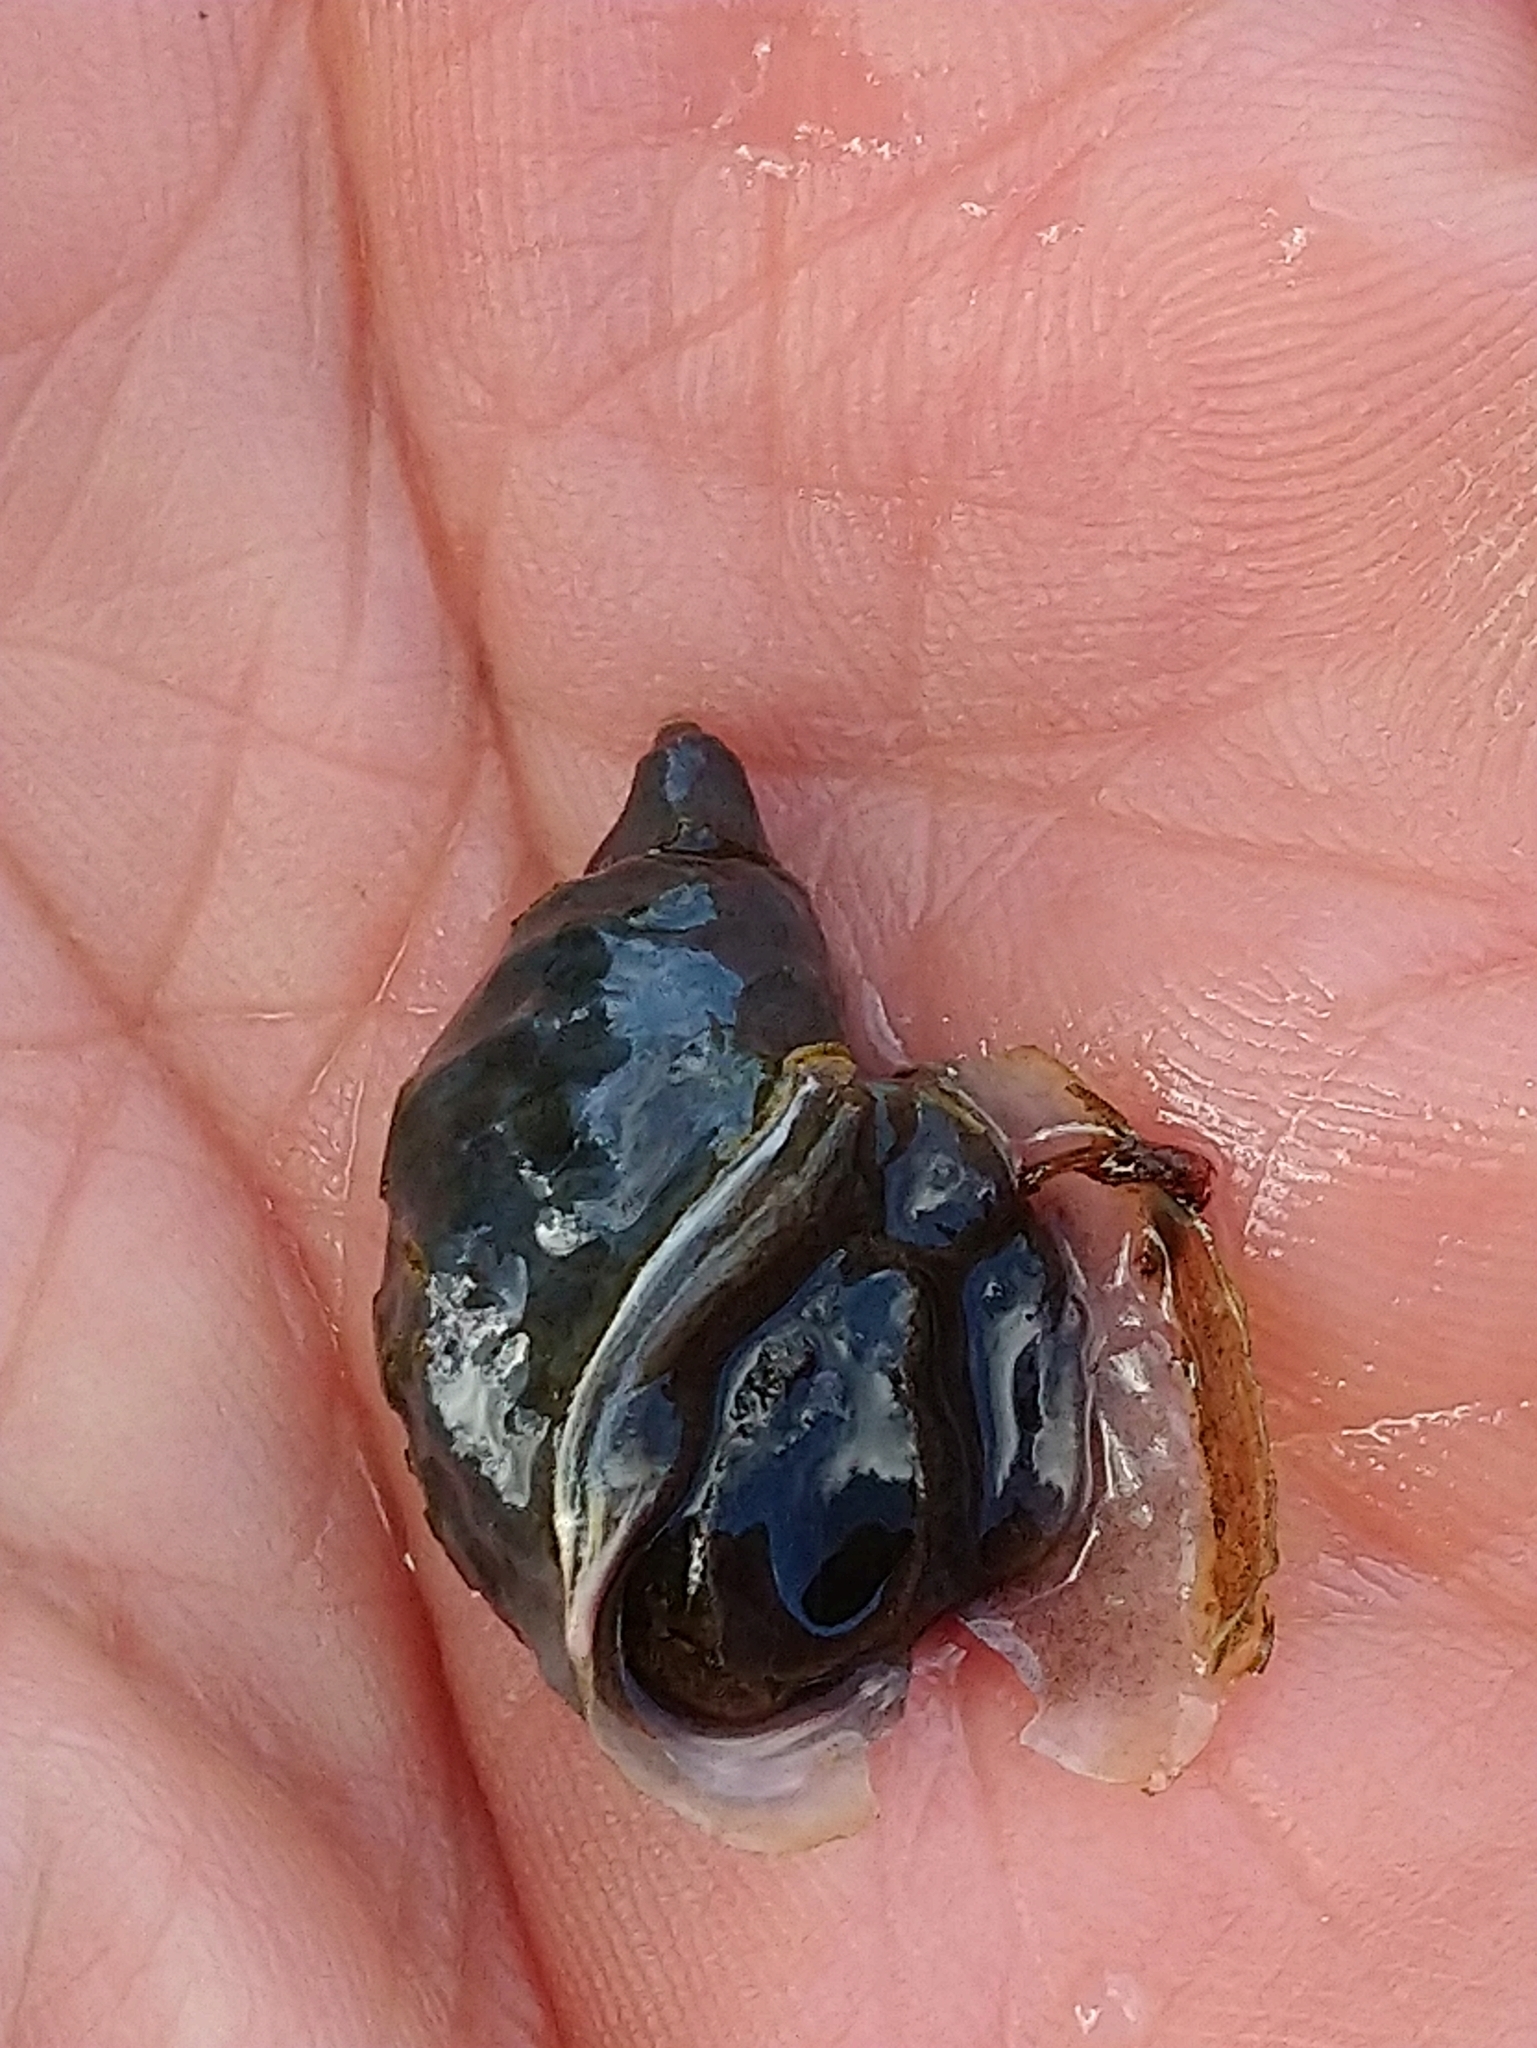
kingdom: Animalia
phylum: Mollusca
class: Gastropoda
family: Lymnaeidae
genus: Lymnaea
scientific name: Lymnaea stagnalis
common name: Great pond snail
